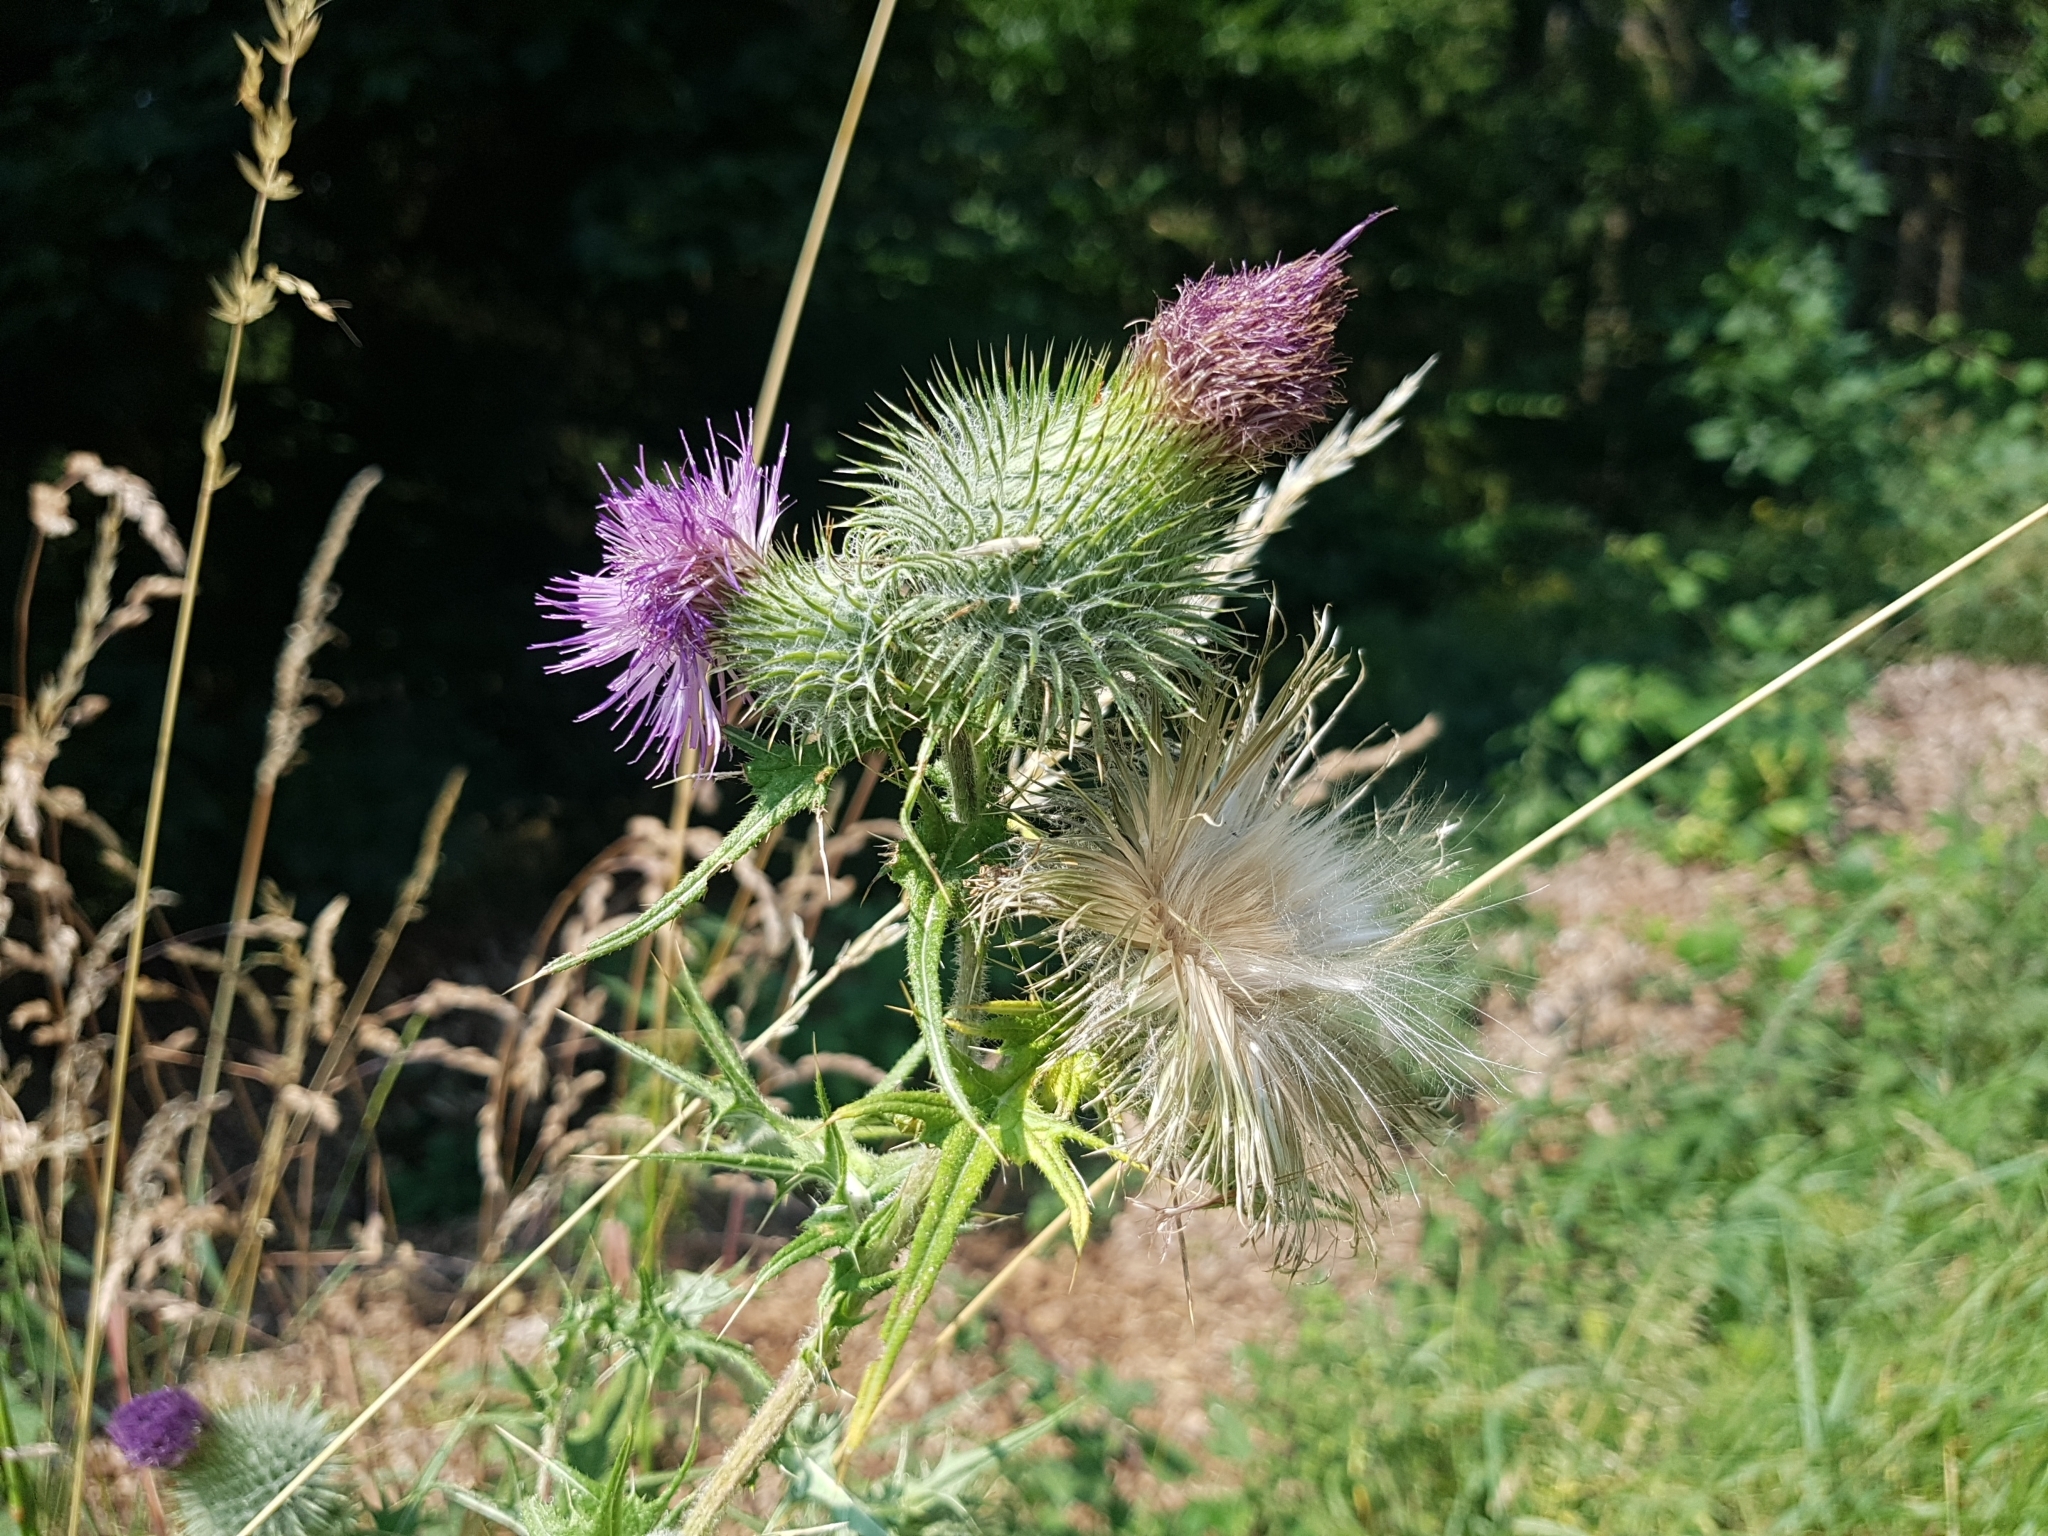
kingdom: Plantae
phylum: Tracheophyta
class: Magnoliopsida
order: Asterales
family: Asteraceae
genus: Cirsium
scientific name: Cirsium vulgare
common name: Bull thistle
